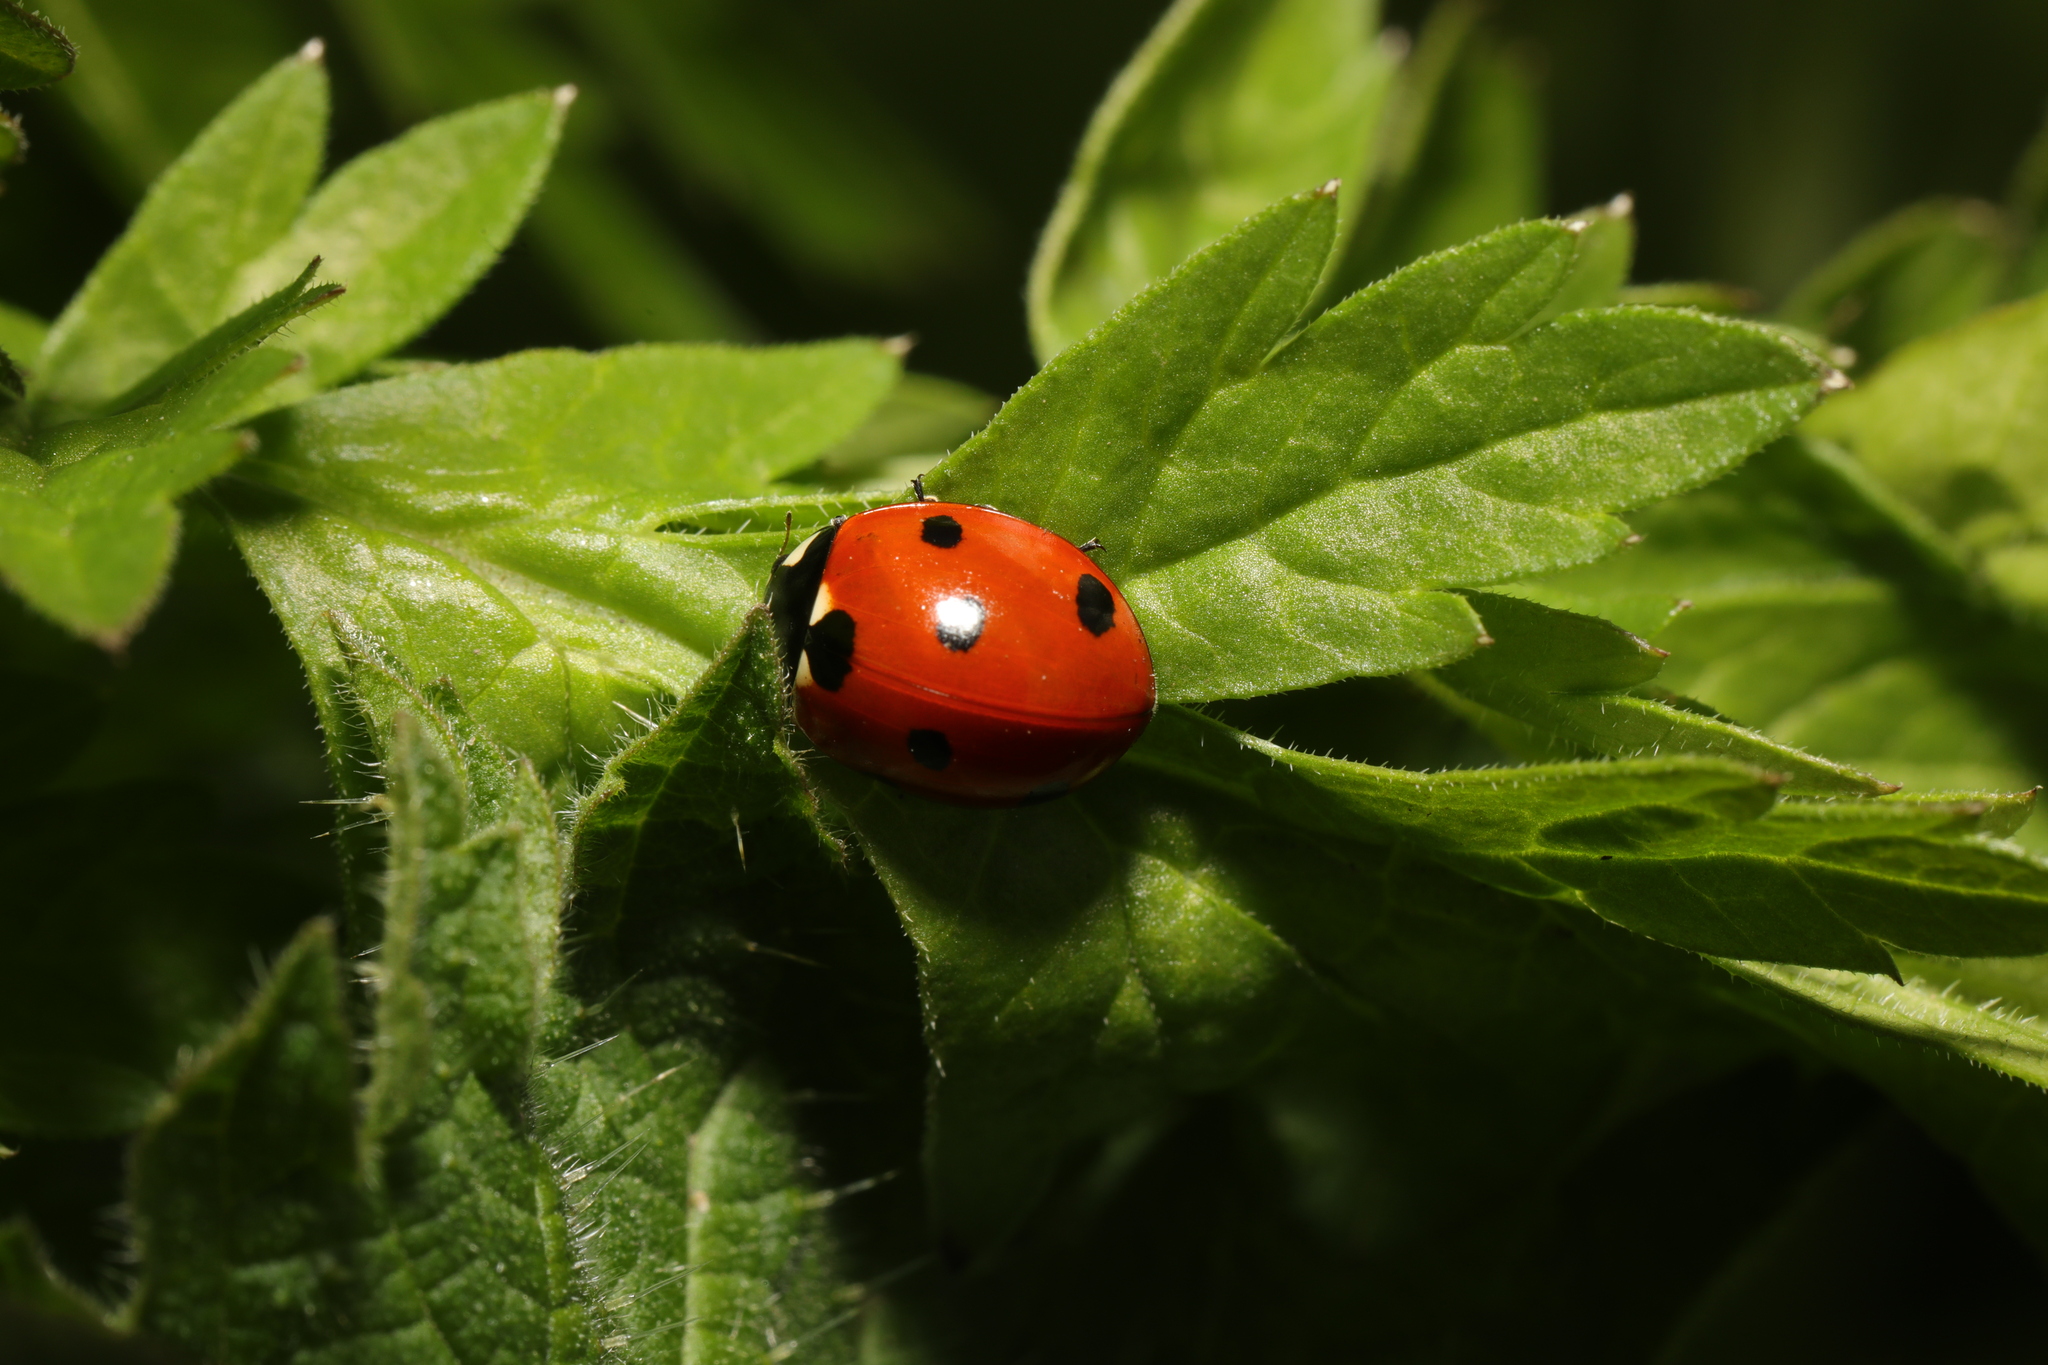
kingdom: Animalia
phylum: Arthropoda
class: Insecta
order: Coleoptera
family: Coccinellidae
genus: Coccinella
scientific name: Coccinella septempunctata
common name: Sevenspotted lady beetle
